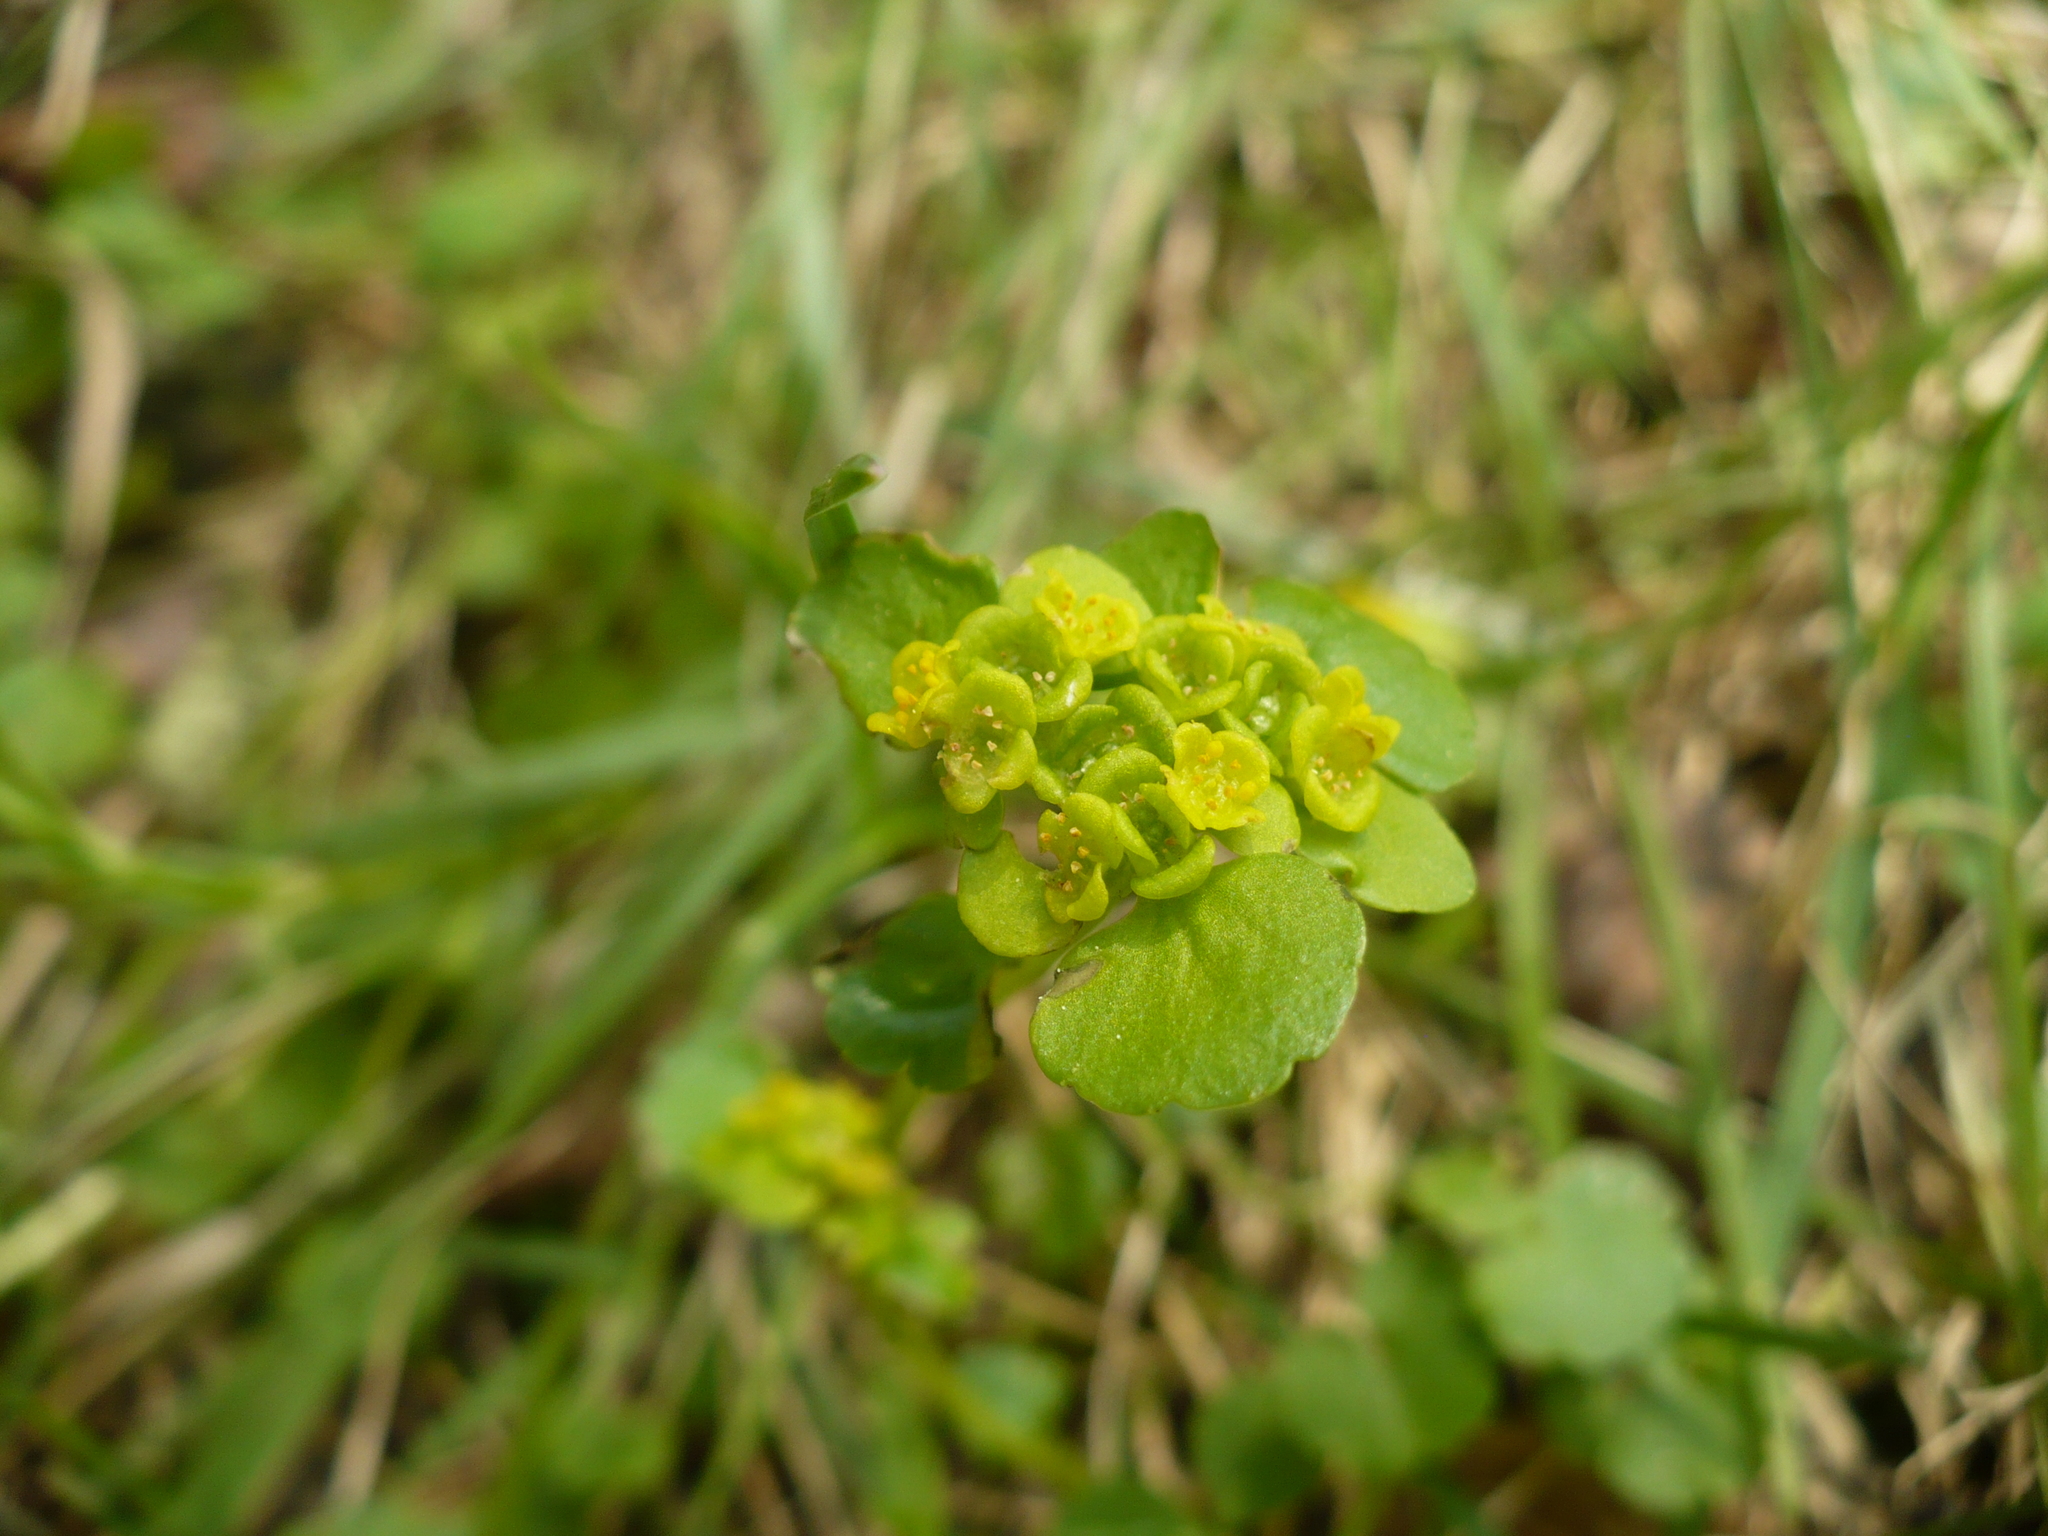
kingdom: Plantae
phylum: Tracheophyta
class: Magnoliopsida
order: Saxifragales
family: Saxifragaceae
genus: Chrysosplenium
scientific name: Chrysosplenium sibiricum
